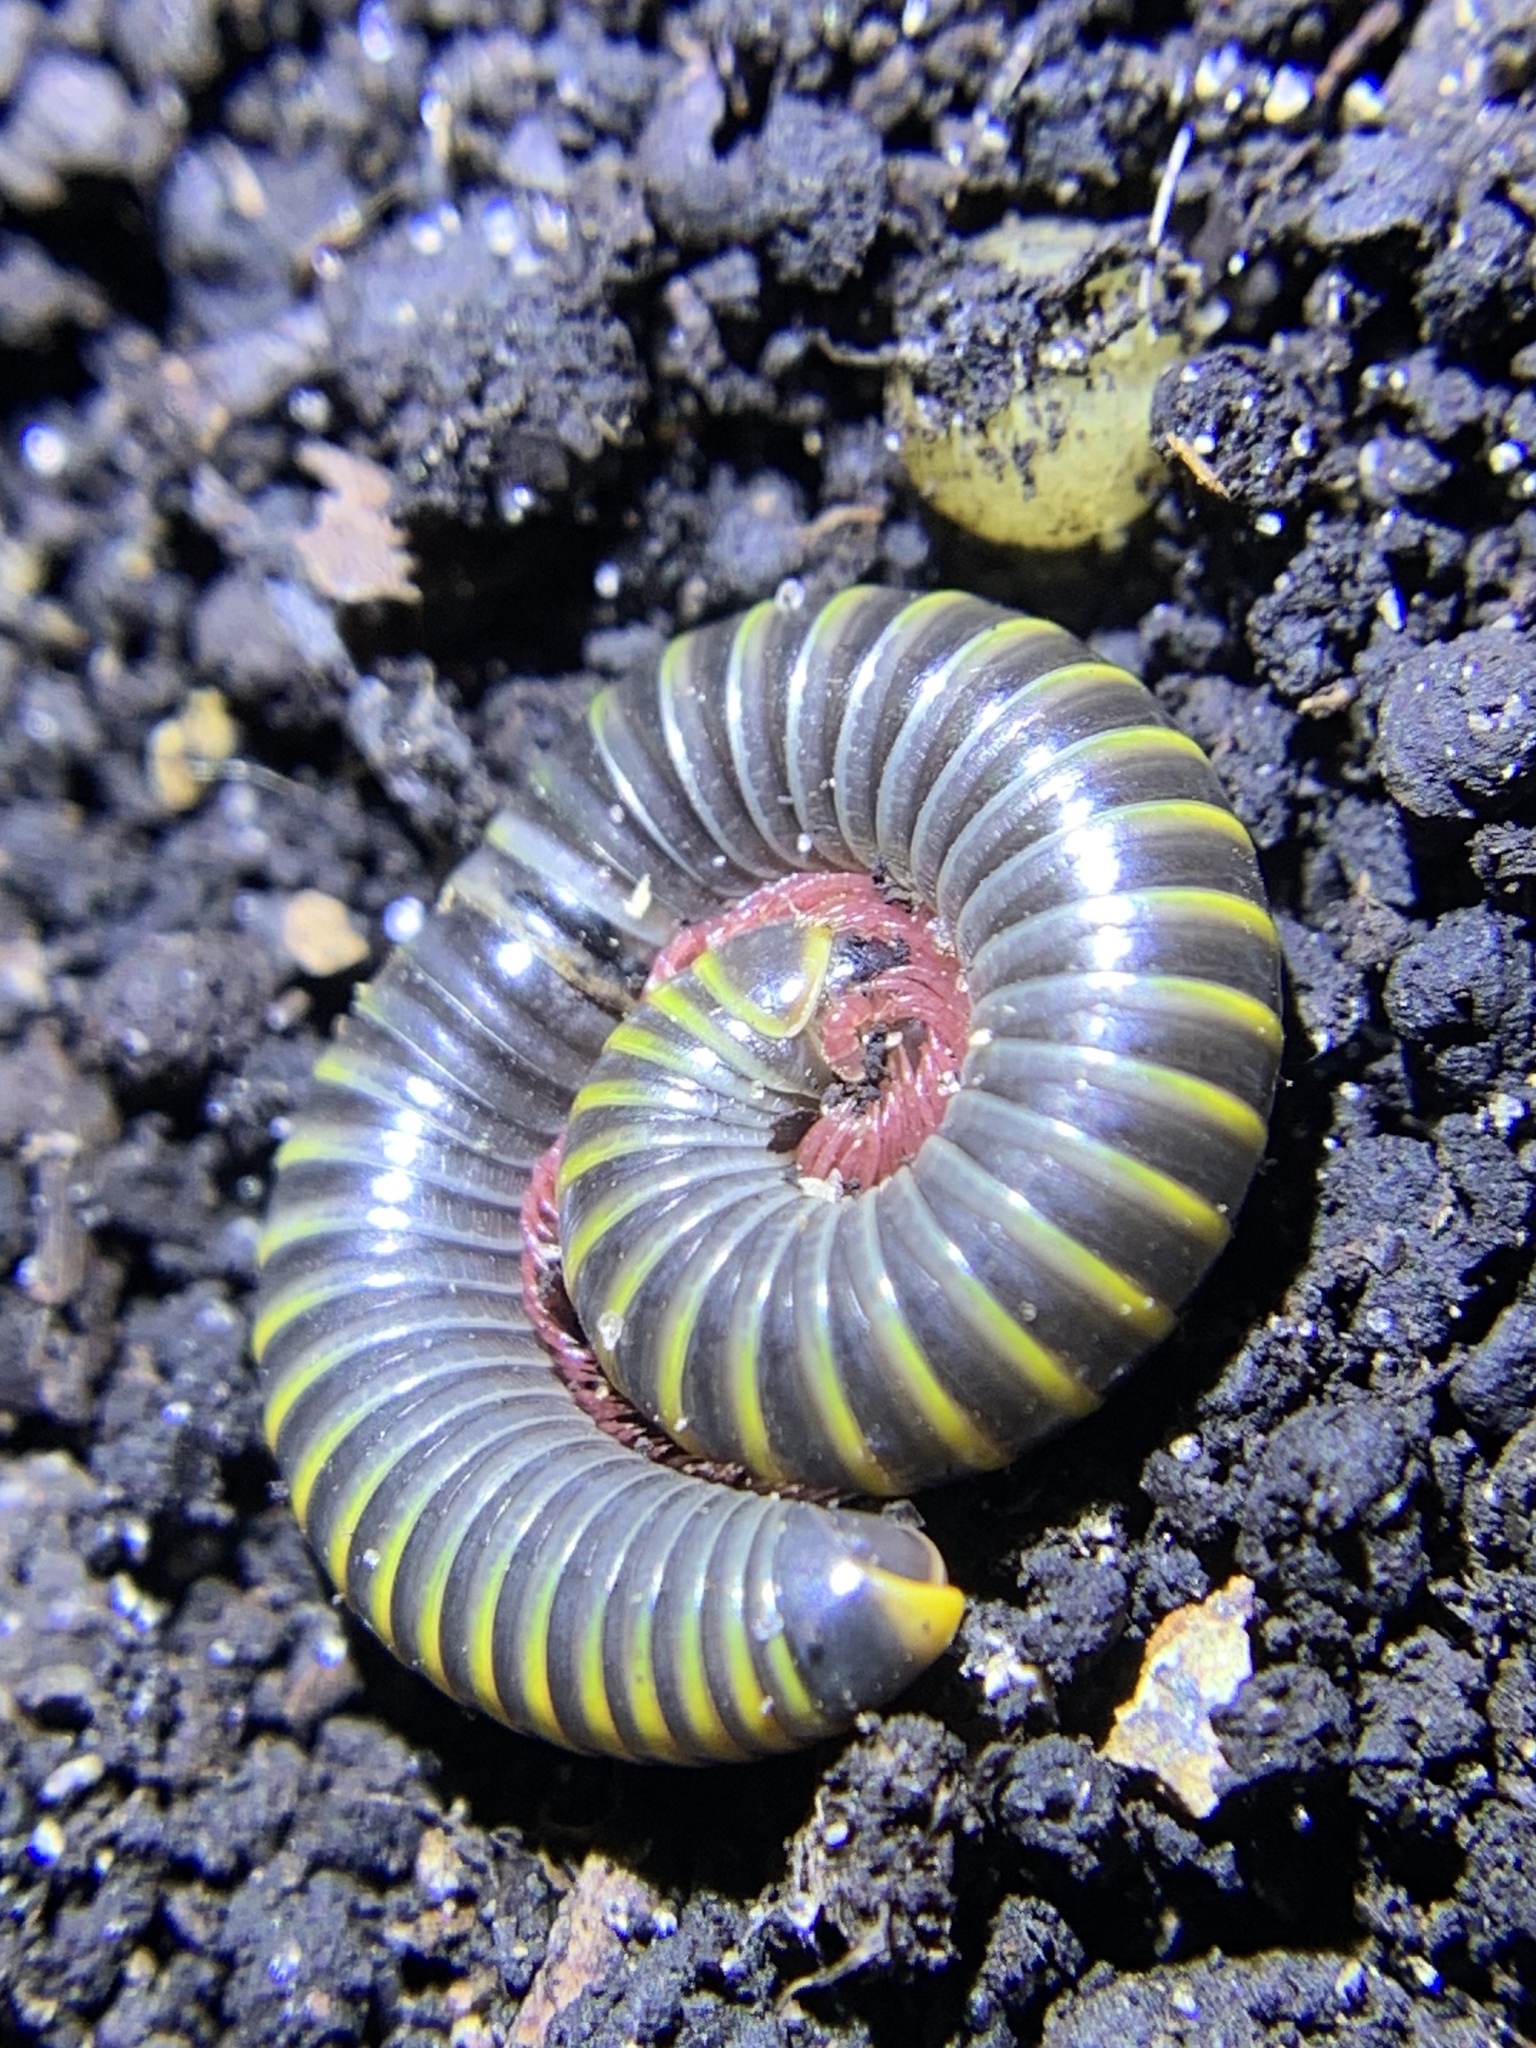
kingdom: Animalia
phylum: Arthropoda
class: Diplopoda
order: Spirobolida
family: Rhinocricidae
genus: Anadenobolus
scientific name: Anadenobolus monilicornis
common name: Caribbean millipede
